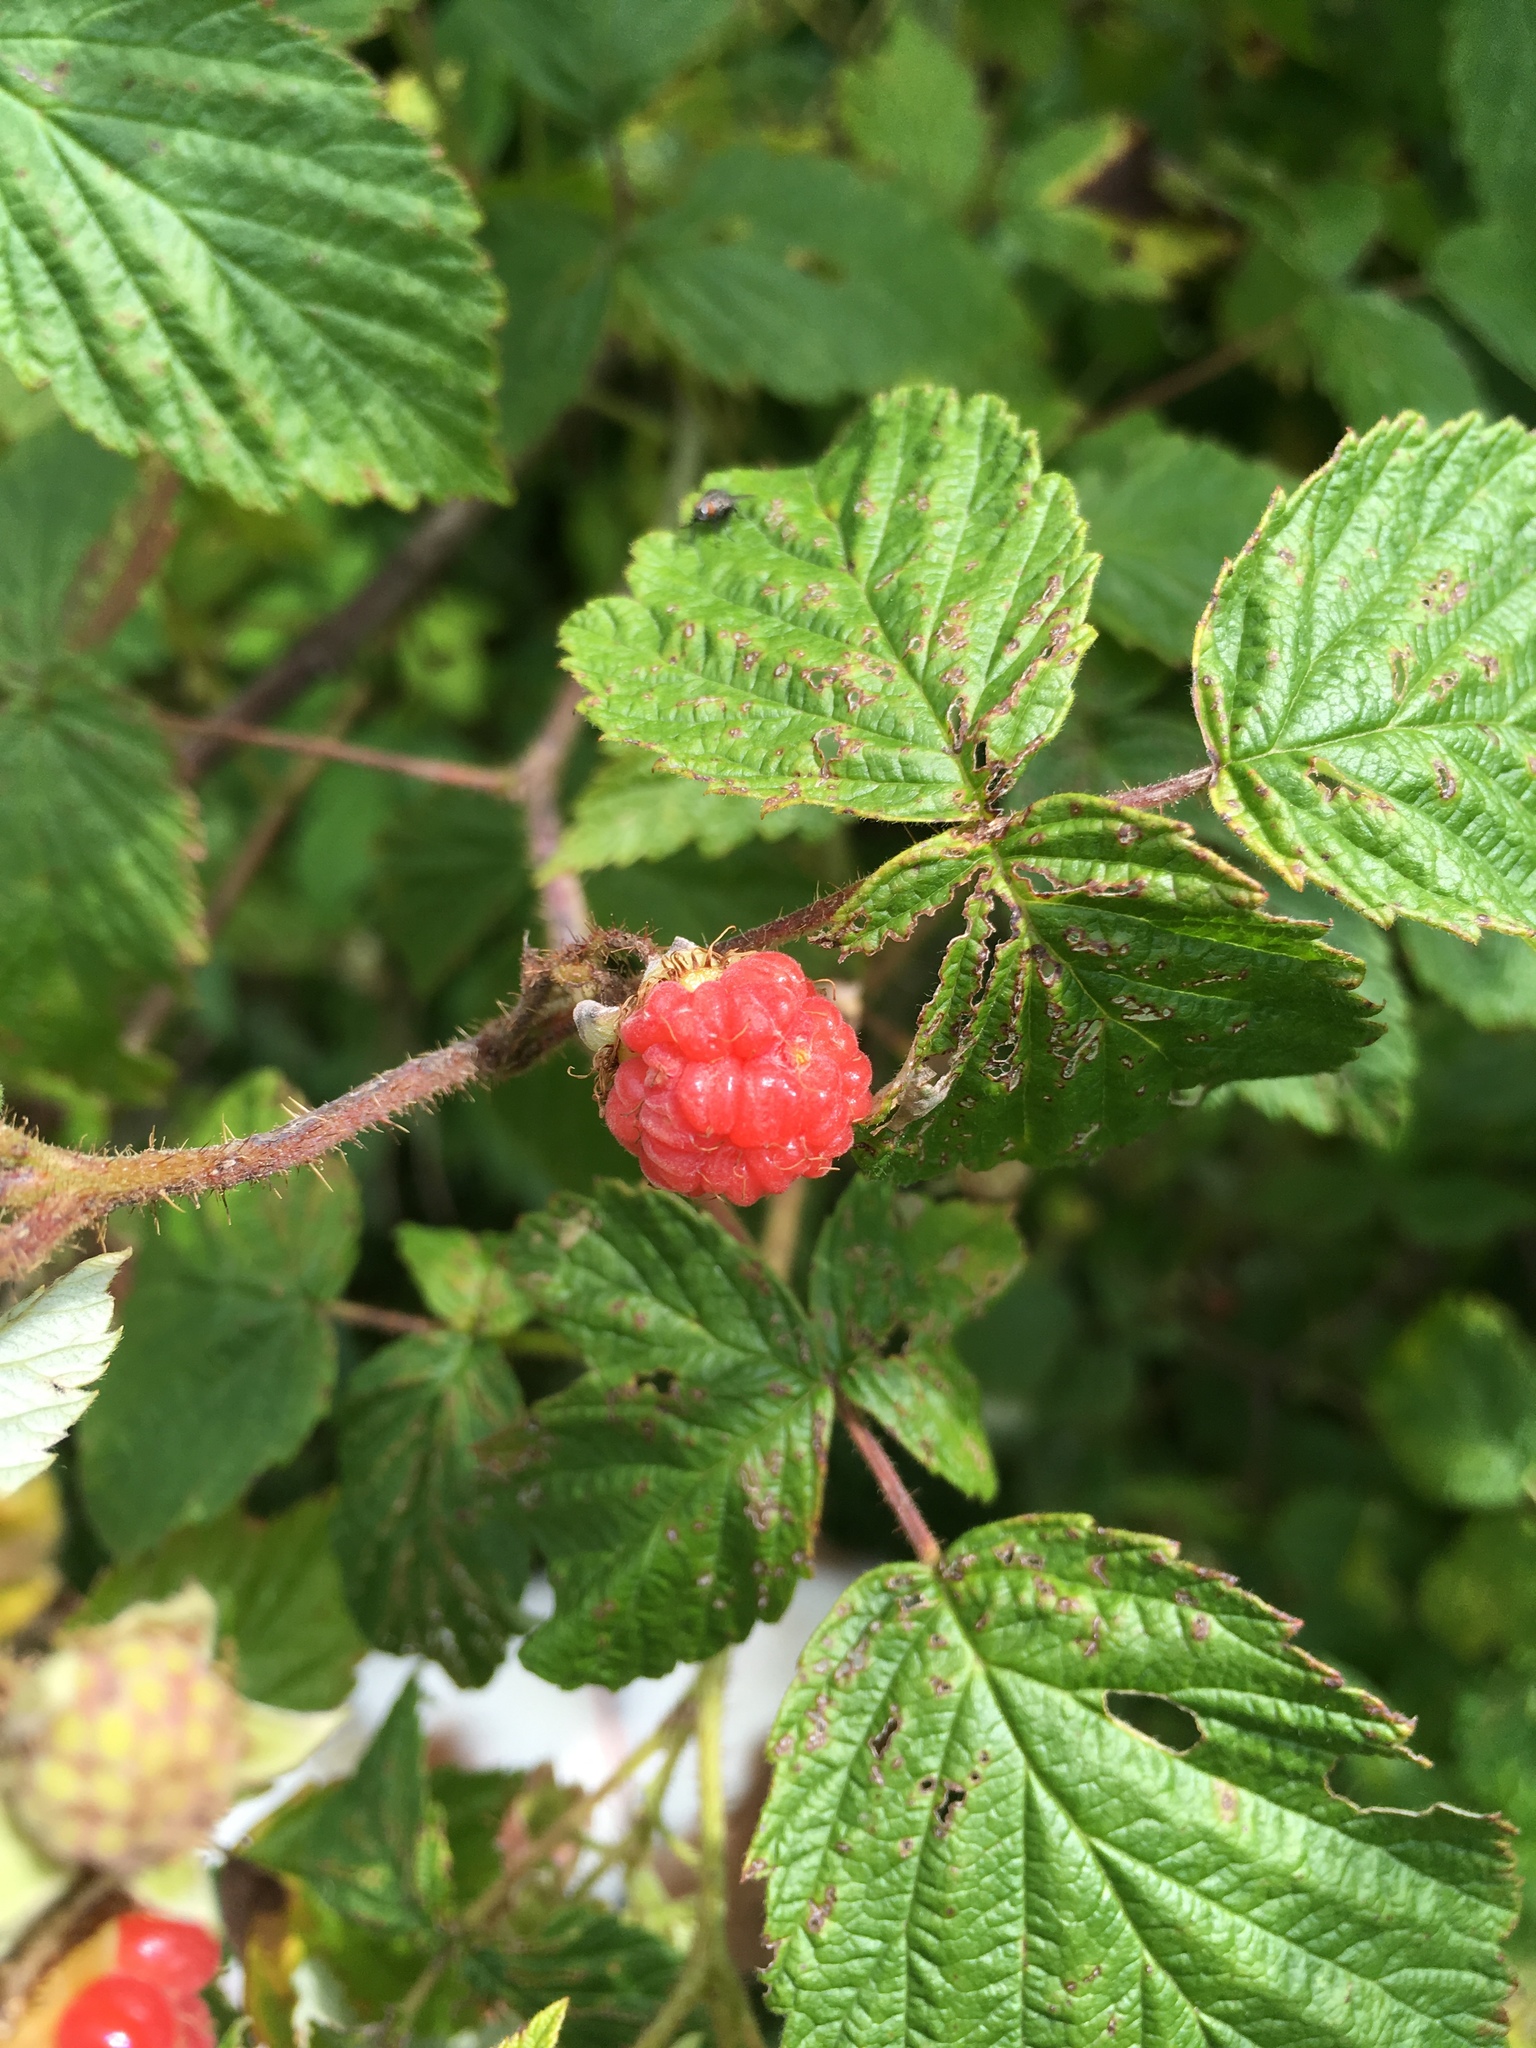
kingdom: Plantae
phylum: Tracheophyta
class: Magnoliopsida
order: Rosales
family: Rosaceae
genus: Rubus
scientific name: Rubus idaeus
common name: Raspberry
